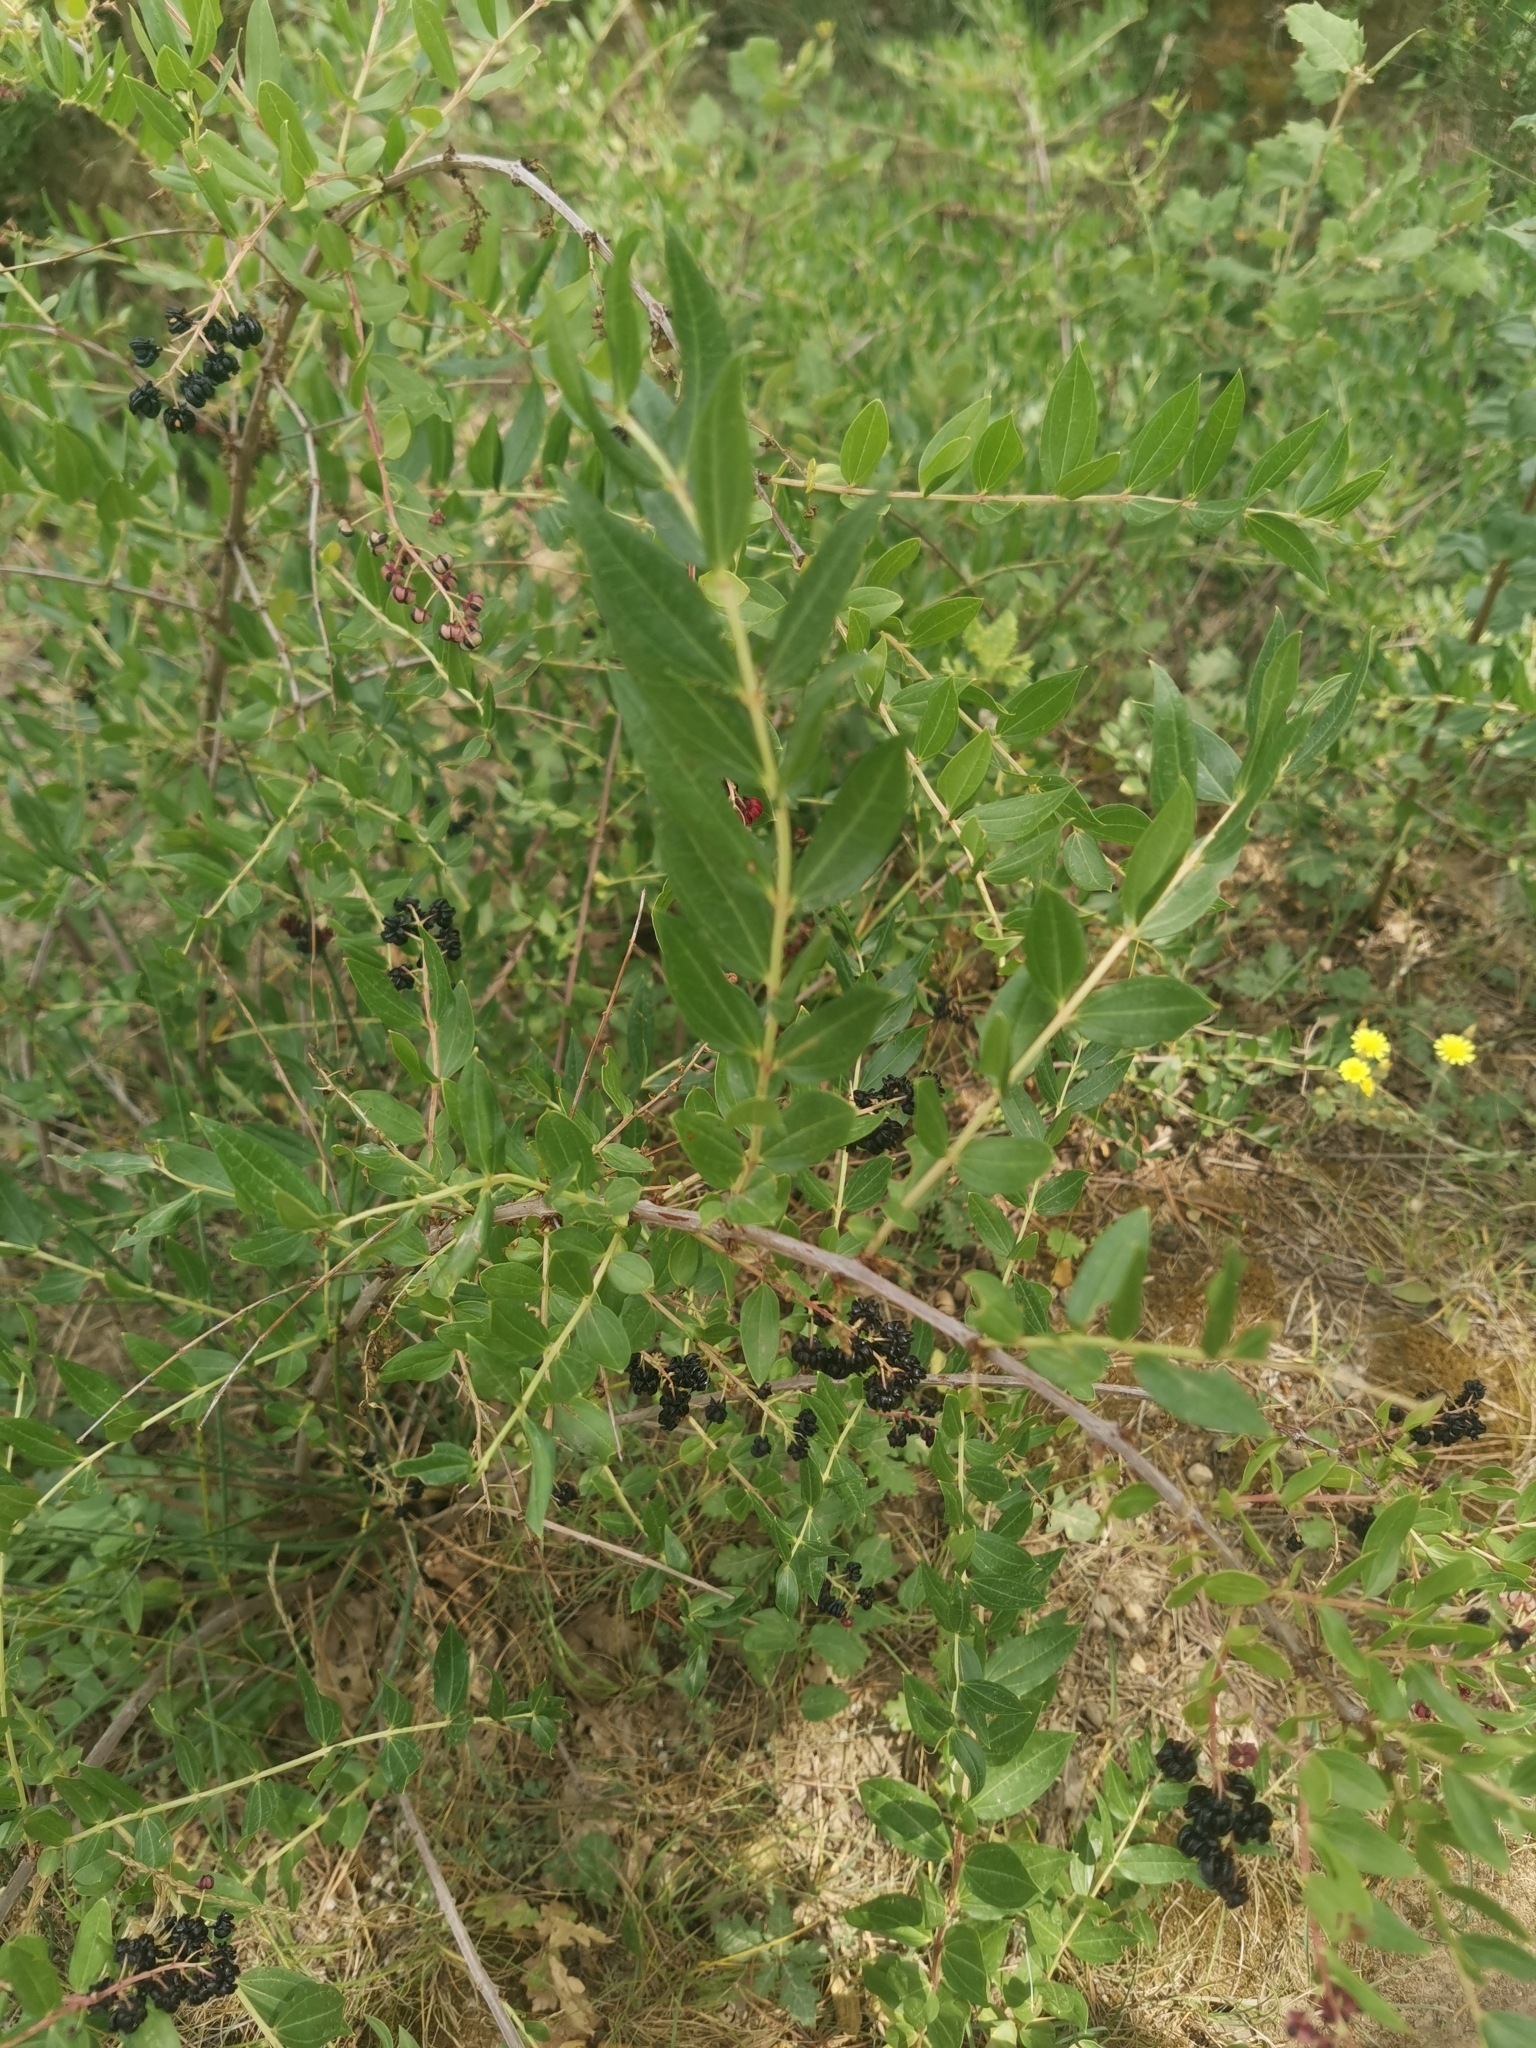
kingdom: Plantae
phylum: Tracheophyta
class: Magnoliopsida
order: Cucurbitales
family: Coriariaceae
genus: Coriaria
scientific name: Coriaria myrtifolia
